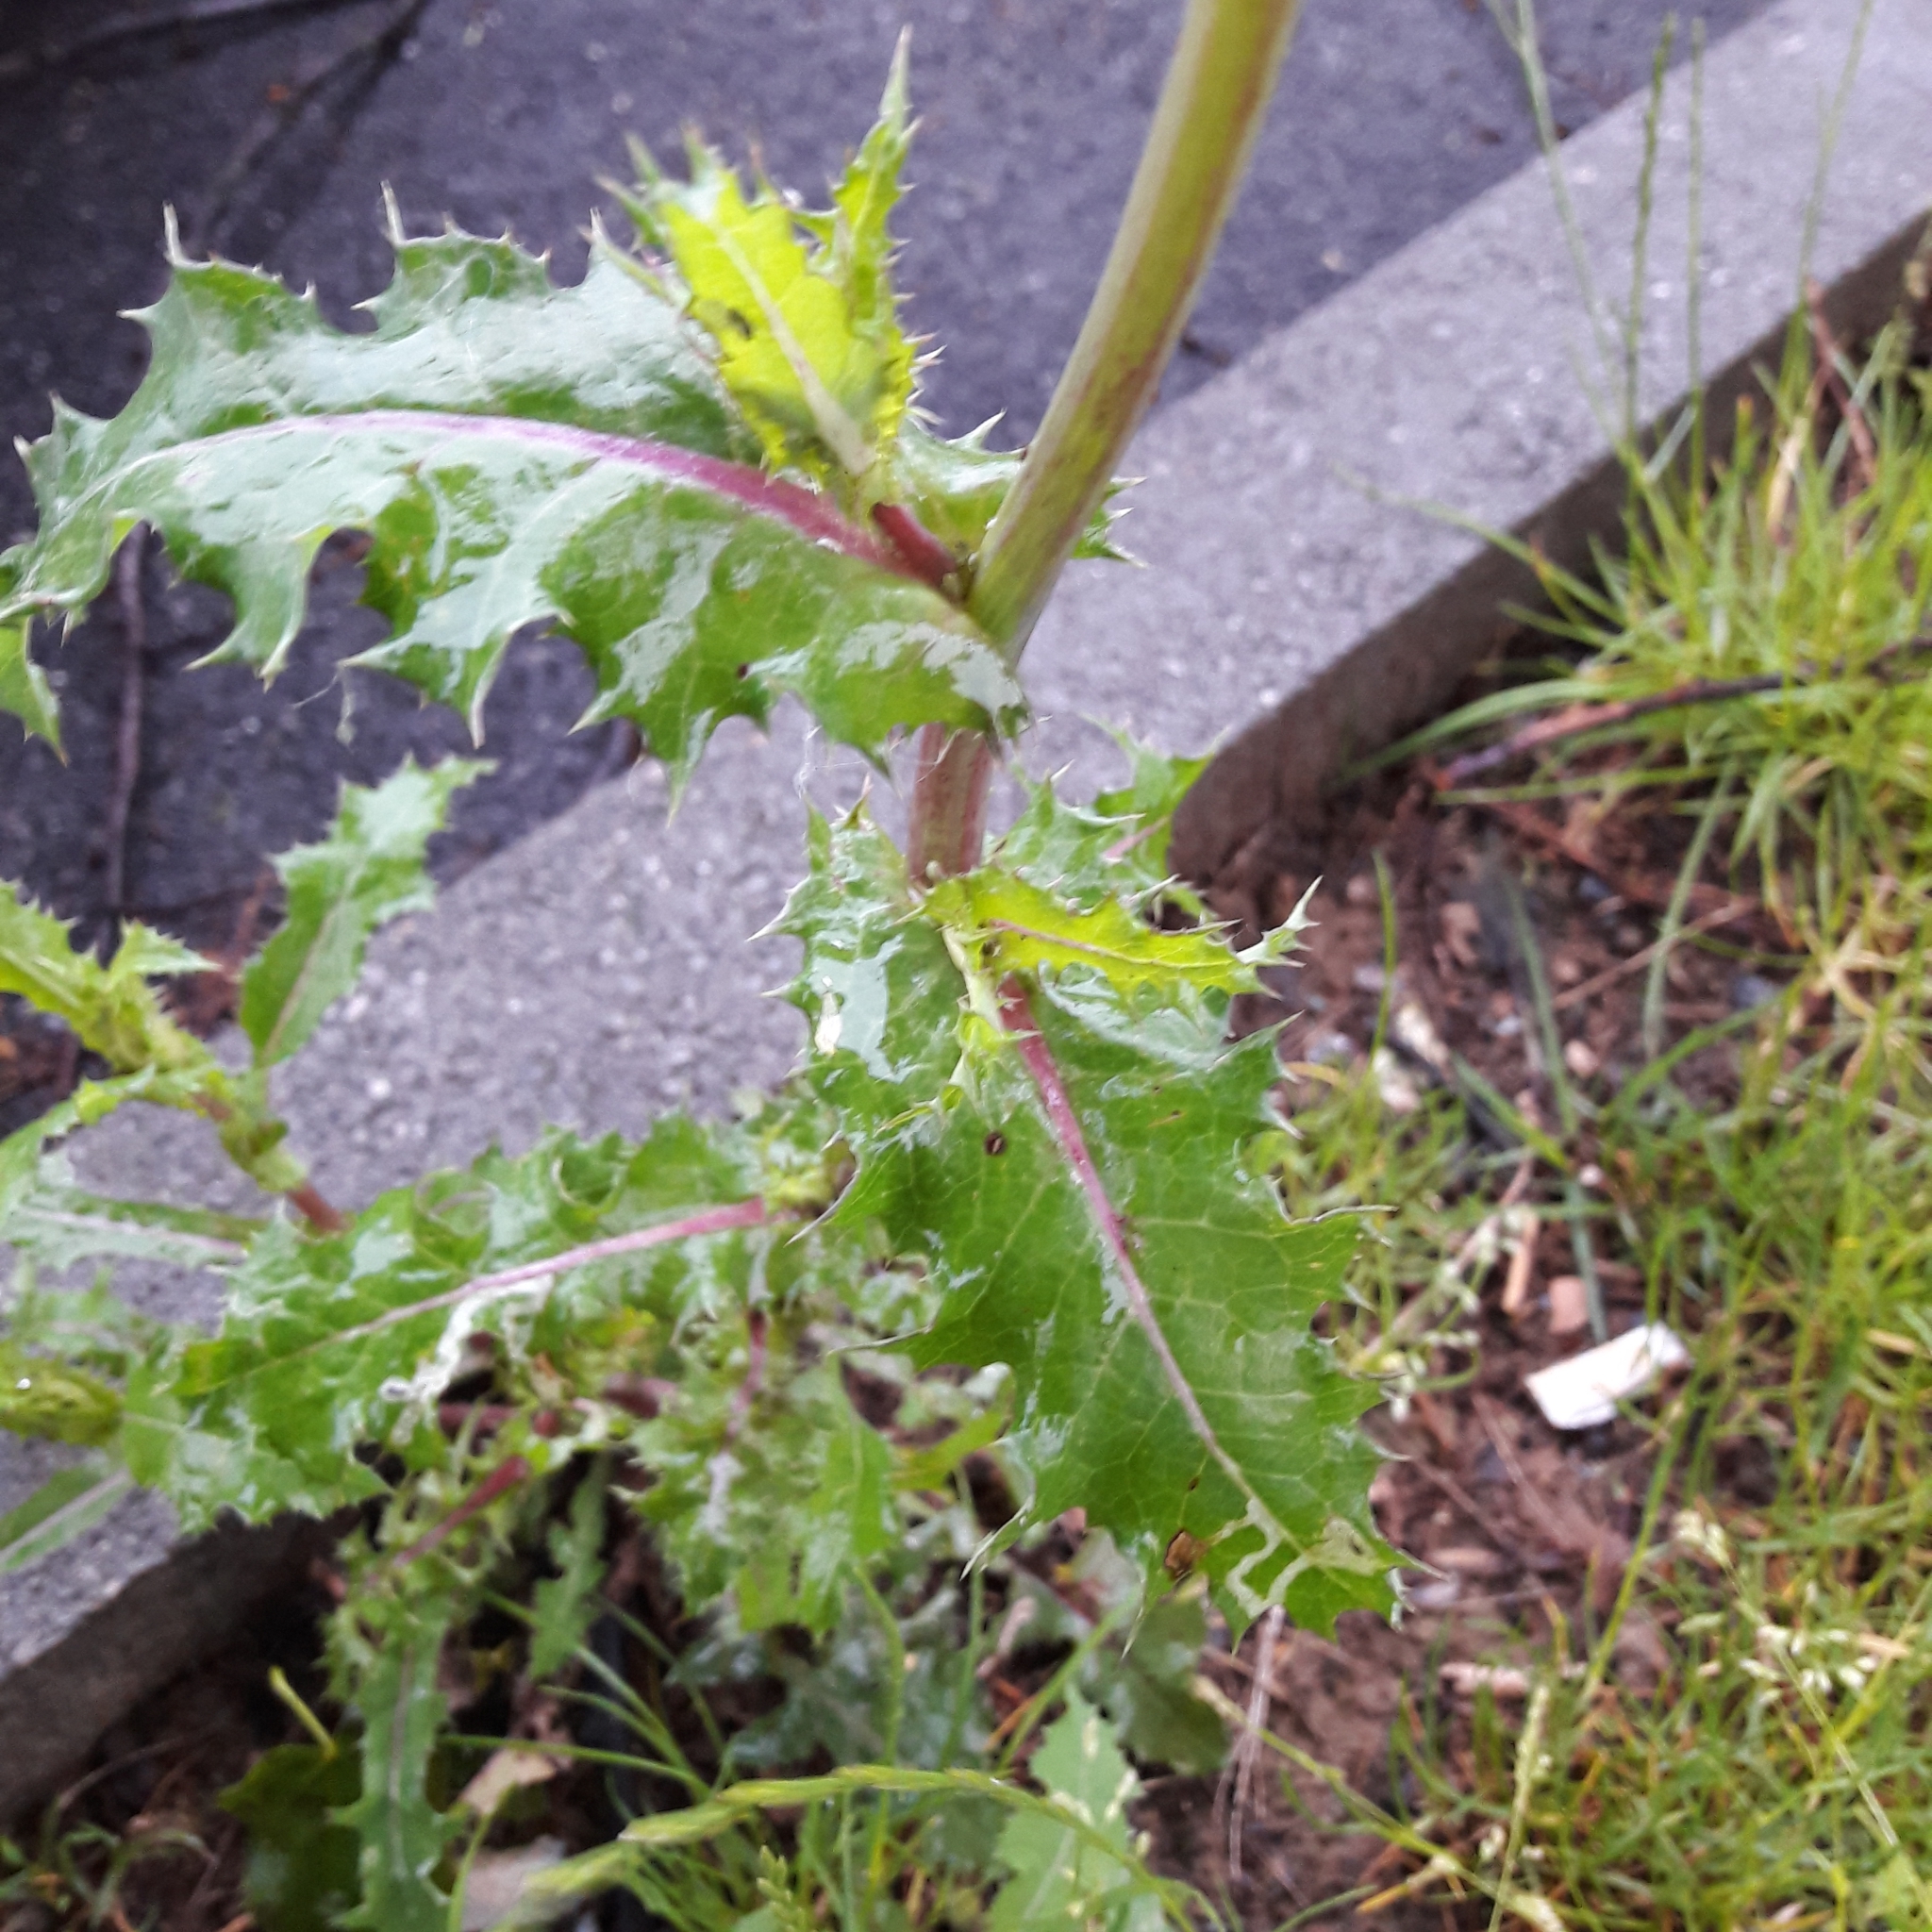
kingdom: Plantae
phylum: Tracheophyta
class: Magnoliopsida
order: Asterales
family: Asteraceae
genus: Sonchus
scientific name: Sonchus asper
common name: Prickly sow-thistle
